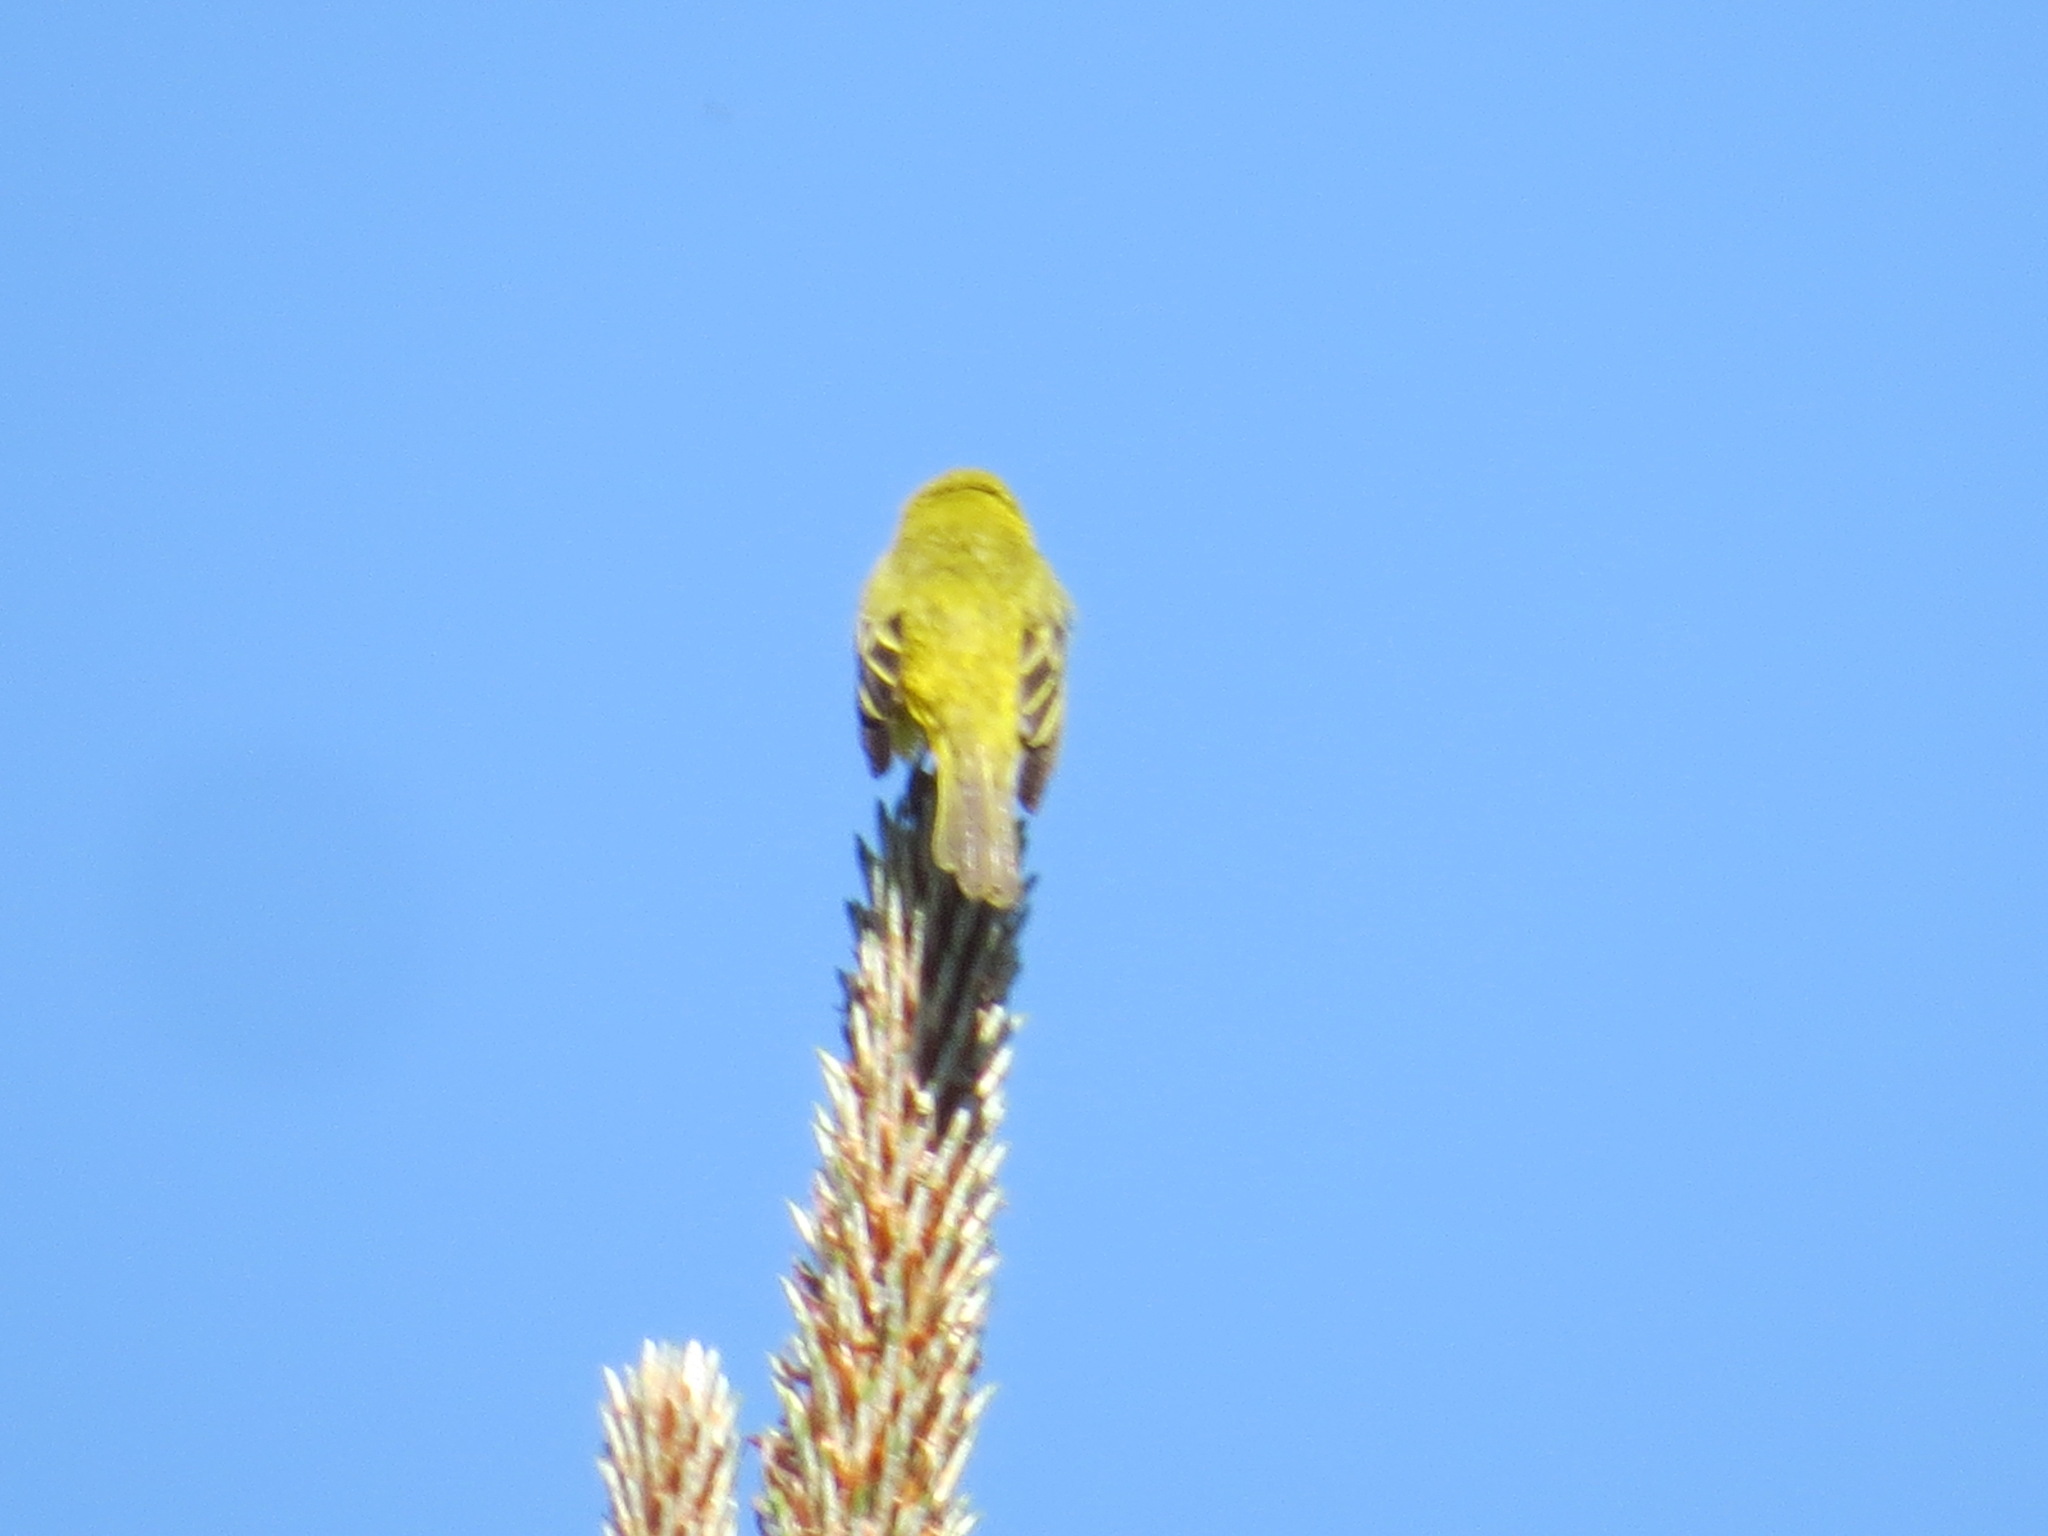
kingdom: Animalia
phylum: Chordata
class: Aves
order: Passeriformes
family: Parulidae
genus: Setophaga
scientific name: Setophaga petechia
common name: Yellow warbler
